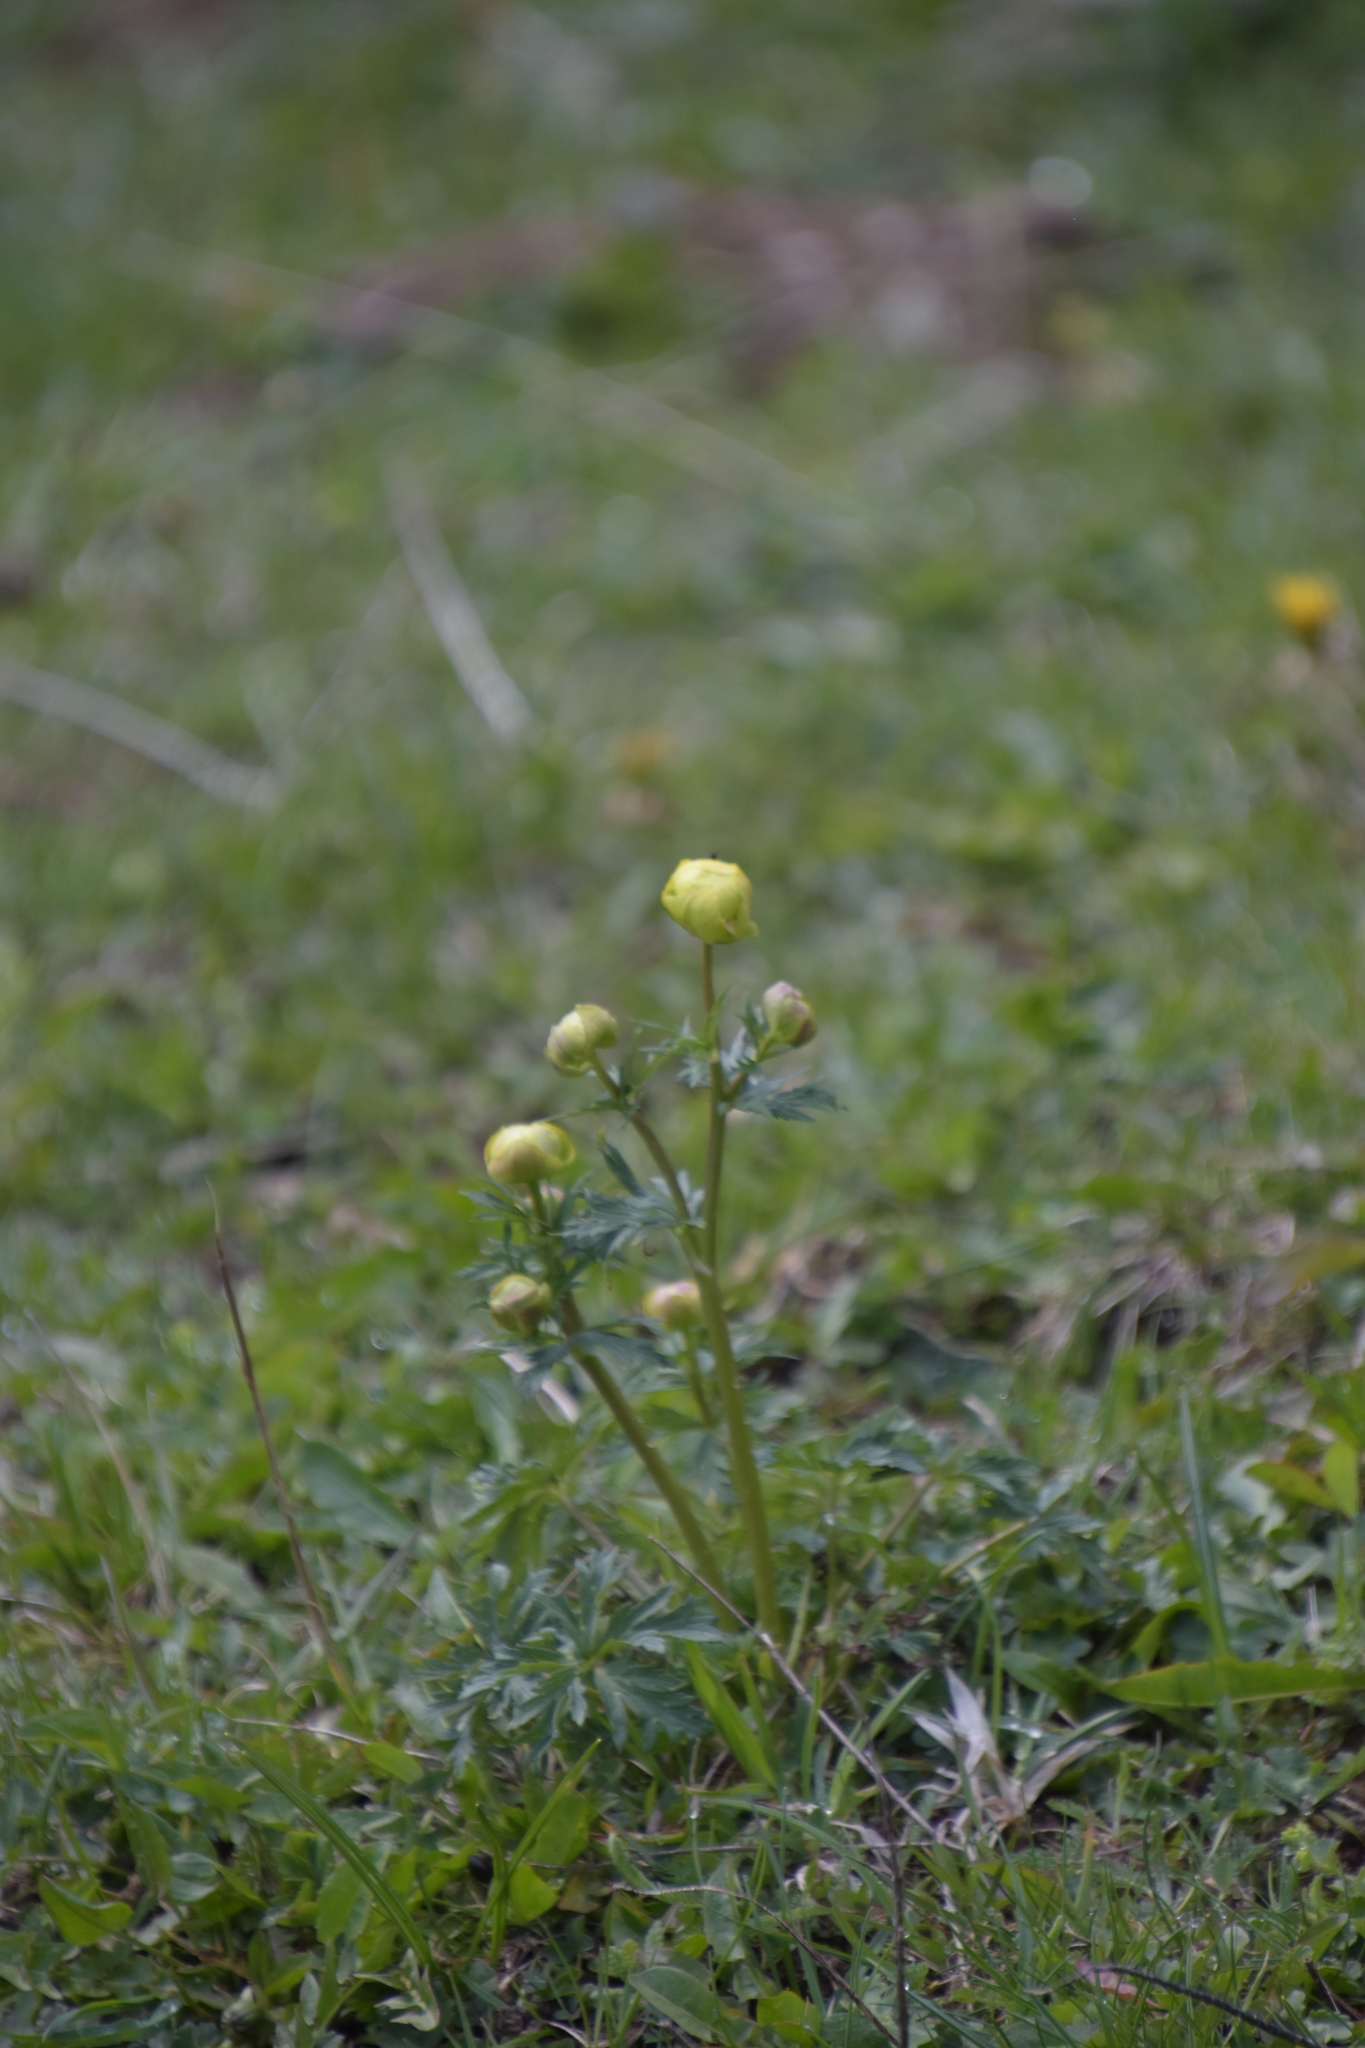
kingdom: Plantae
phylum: Tracheophyta
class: Magnoliopsida
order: Ranunculales
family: Ranunculaceae
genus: Trollius
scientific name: Trollius europaeus
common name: European globeflower
